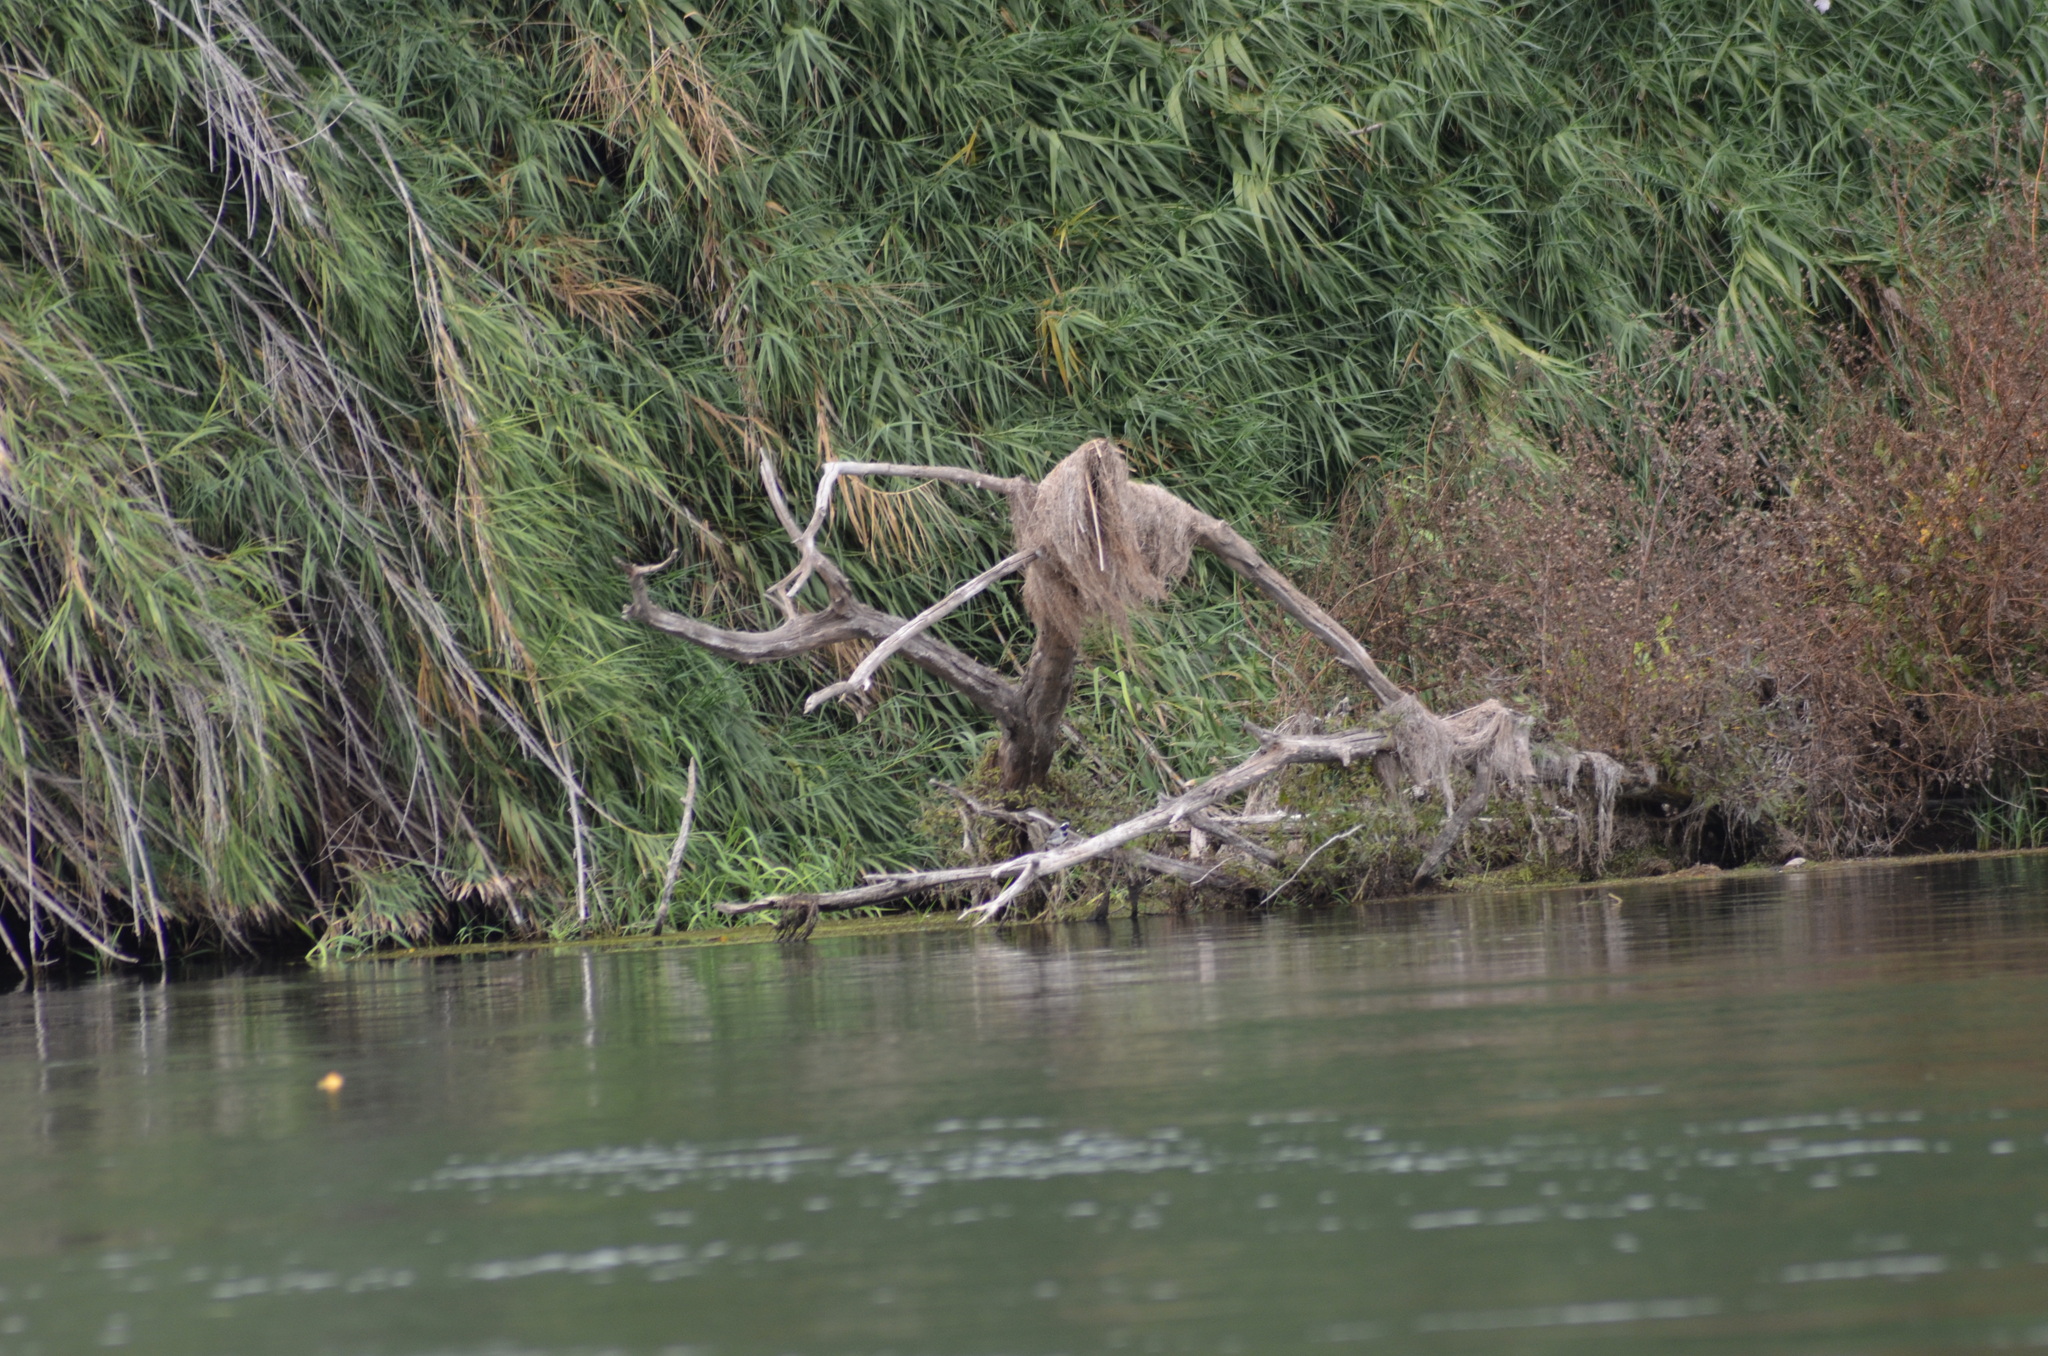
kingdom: Animalia
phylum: Chordata
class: Aves
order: Passeriformes
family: Motacillidae
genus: Motacilla
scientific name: Motacilla alba
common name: White wagtail
